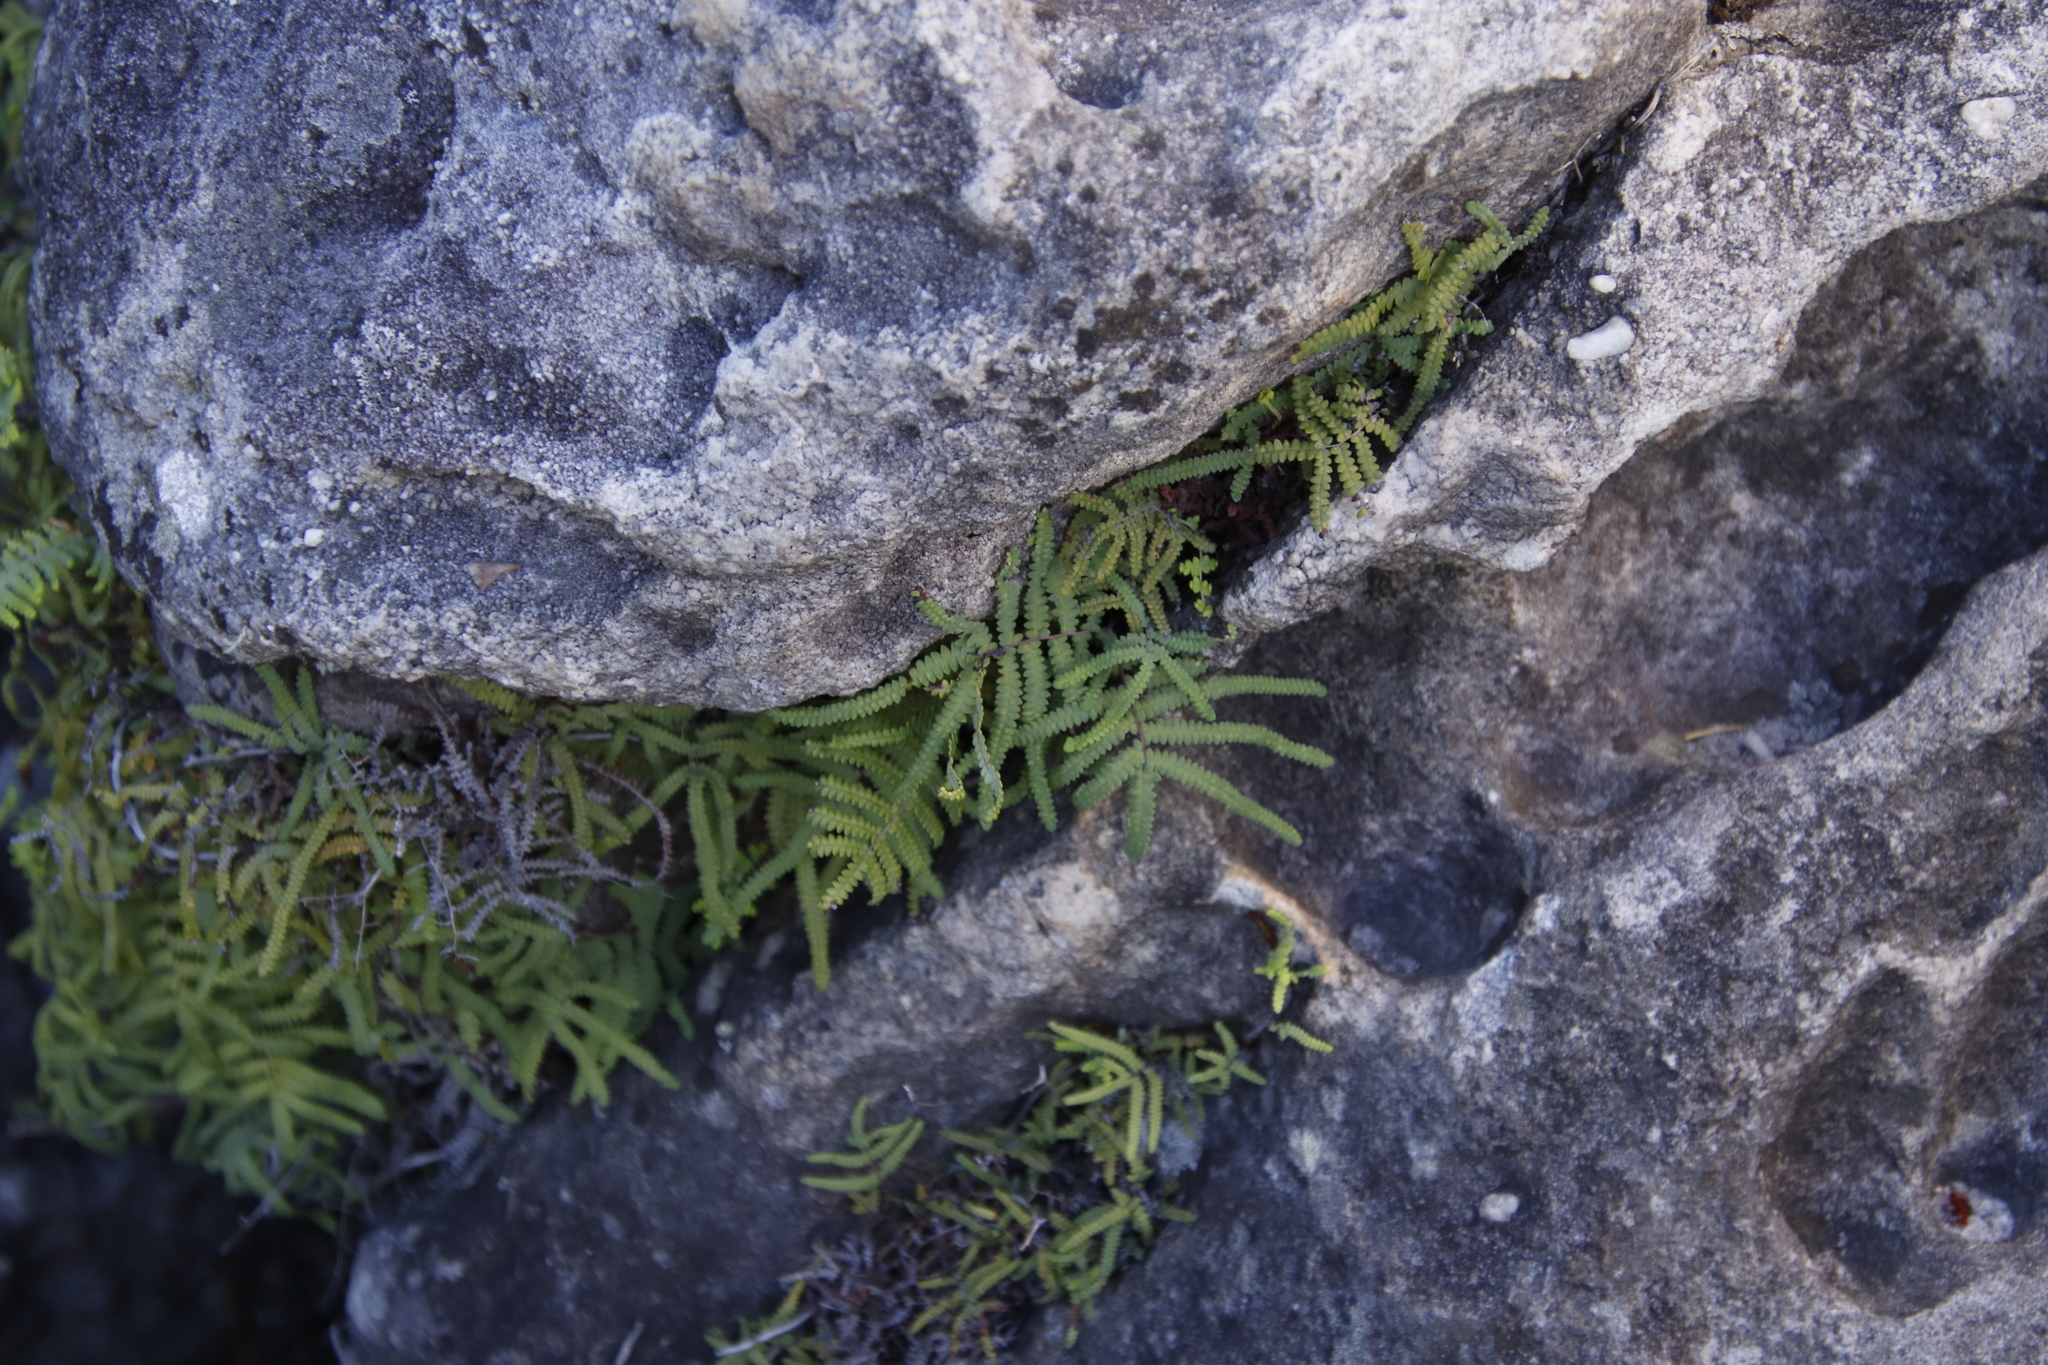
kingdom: Plantae
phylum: Tracheophyta
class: Polypodiopsida
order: Gleicheniales
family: Gleicheniaceae
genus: Gleichenia
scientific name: Gleichenia polypodioides
